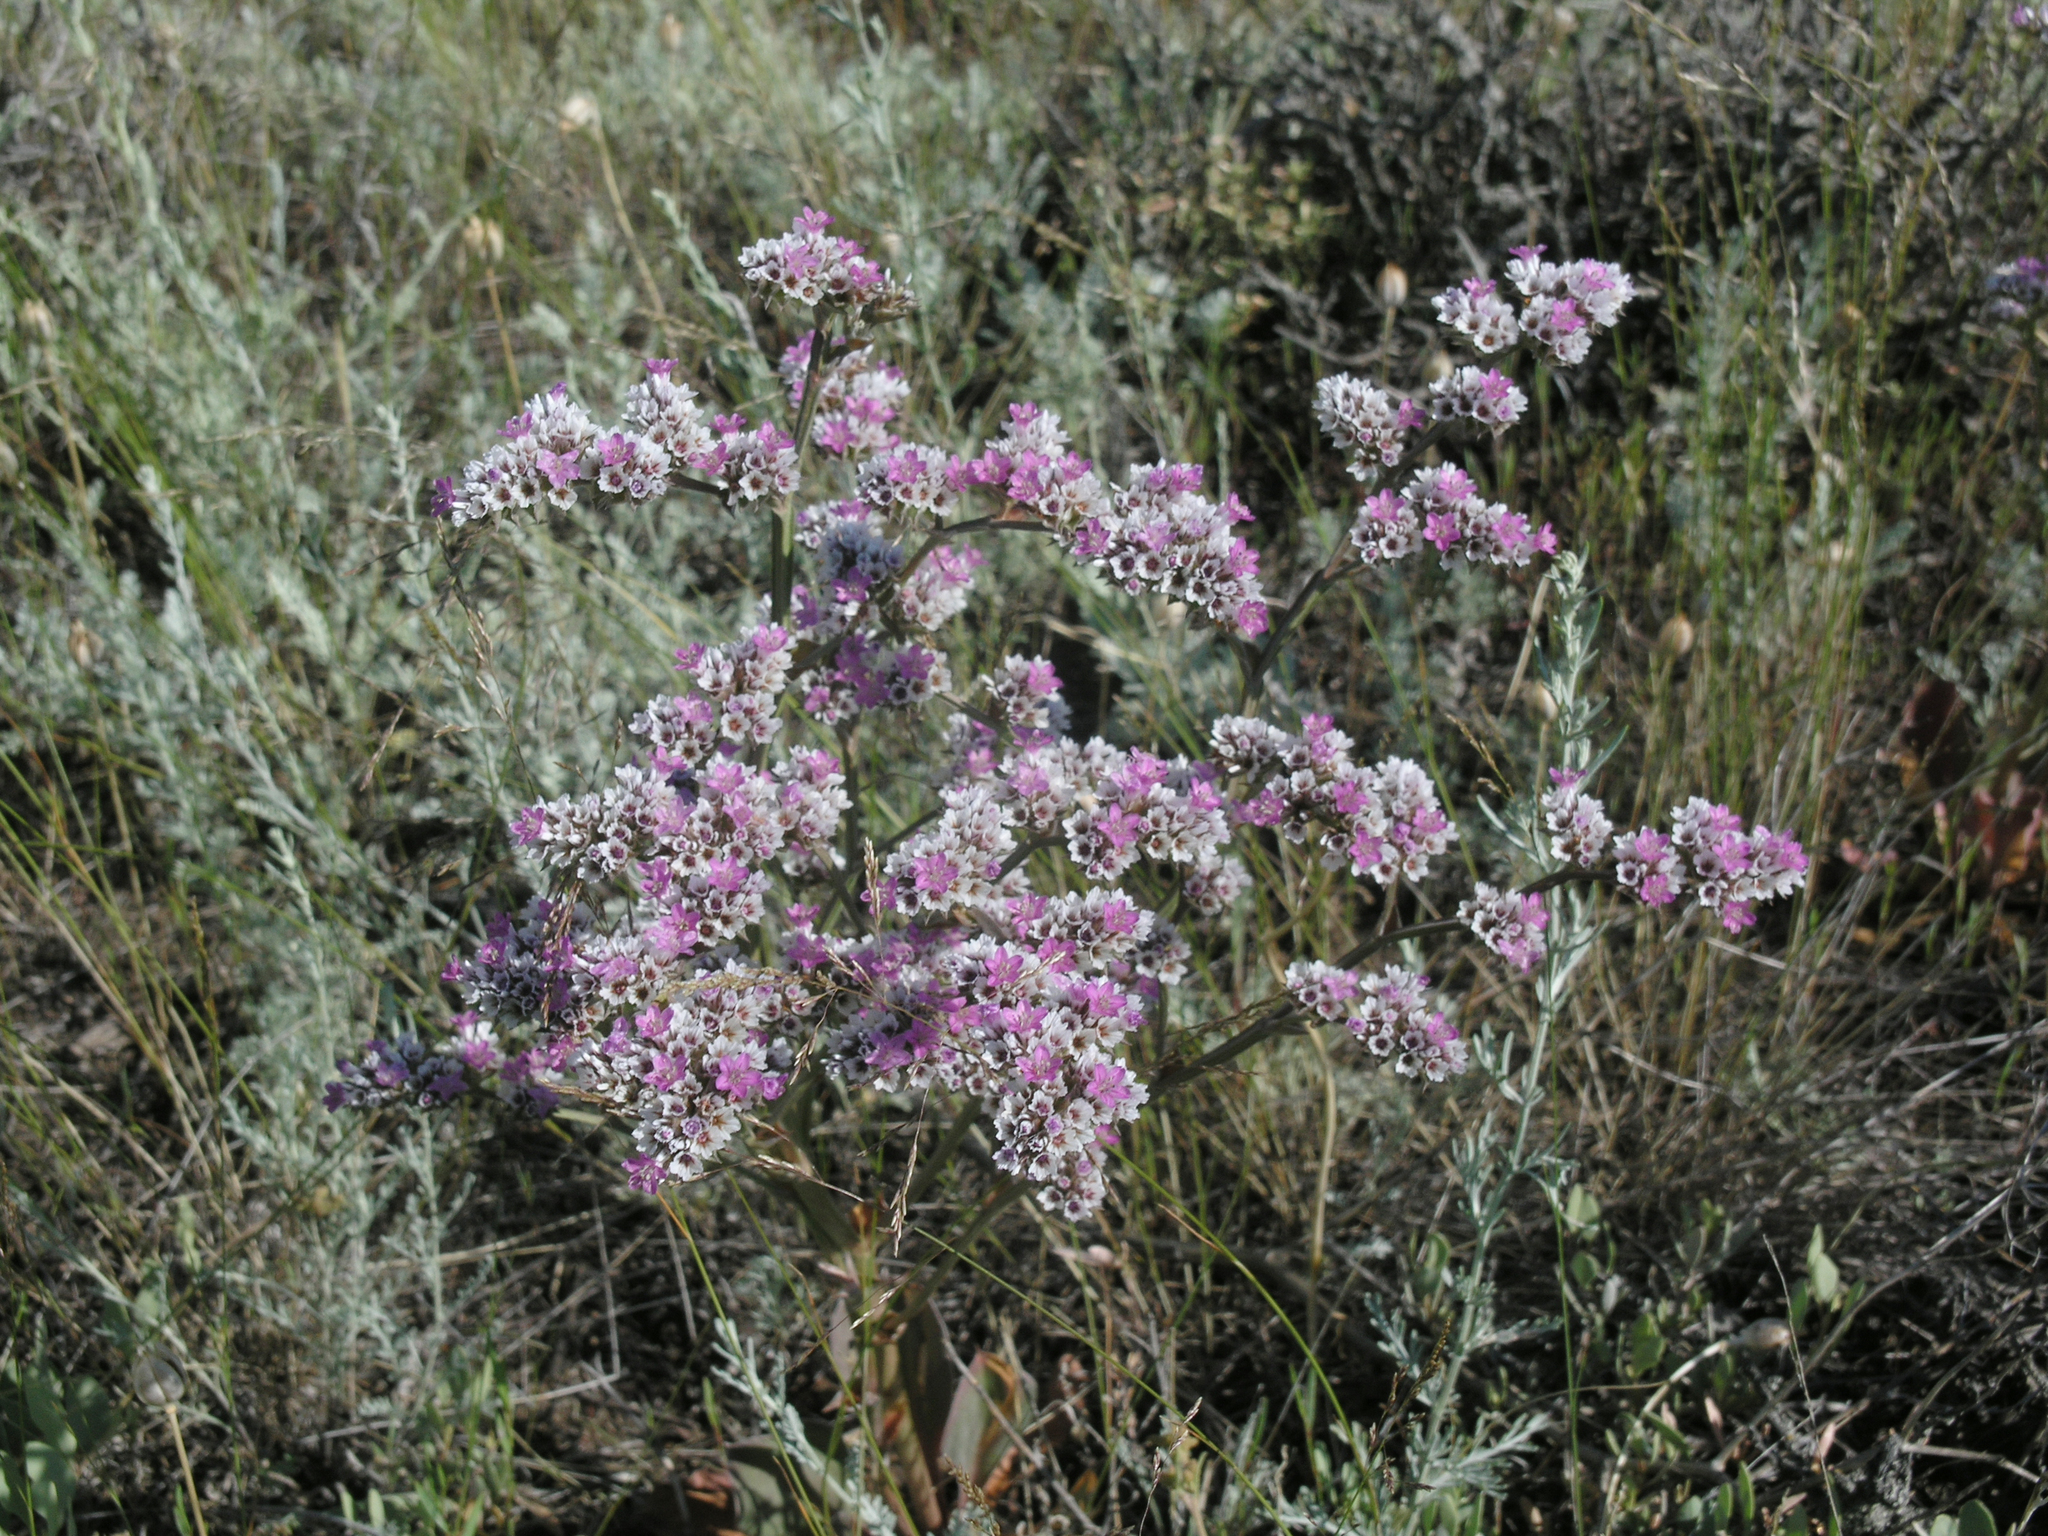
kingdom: Plantae
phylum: Tracheophyta
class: Magnoliopsida
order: Caryophyllales
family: Plumbaginaceae
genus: Goniolimon
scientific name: Goniolimon speciosum
